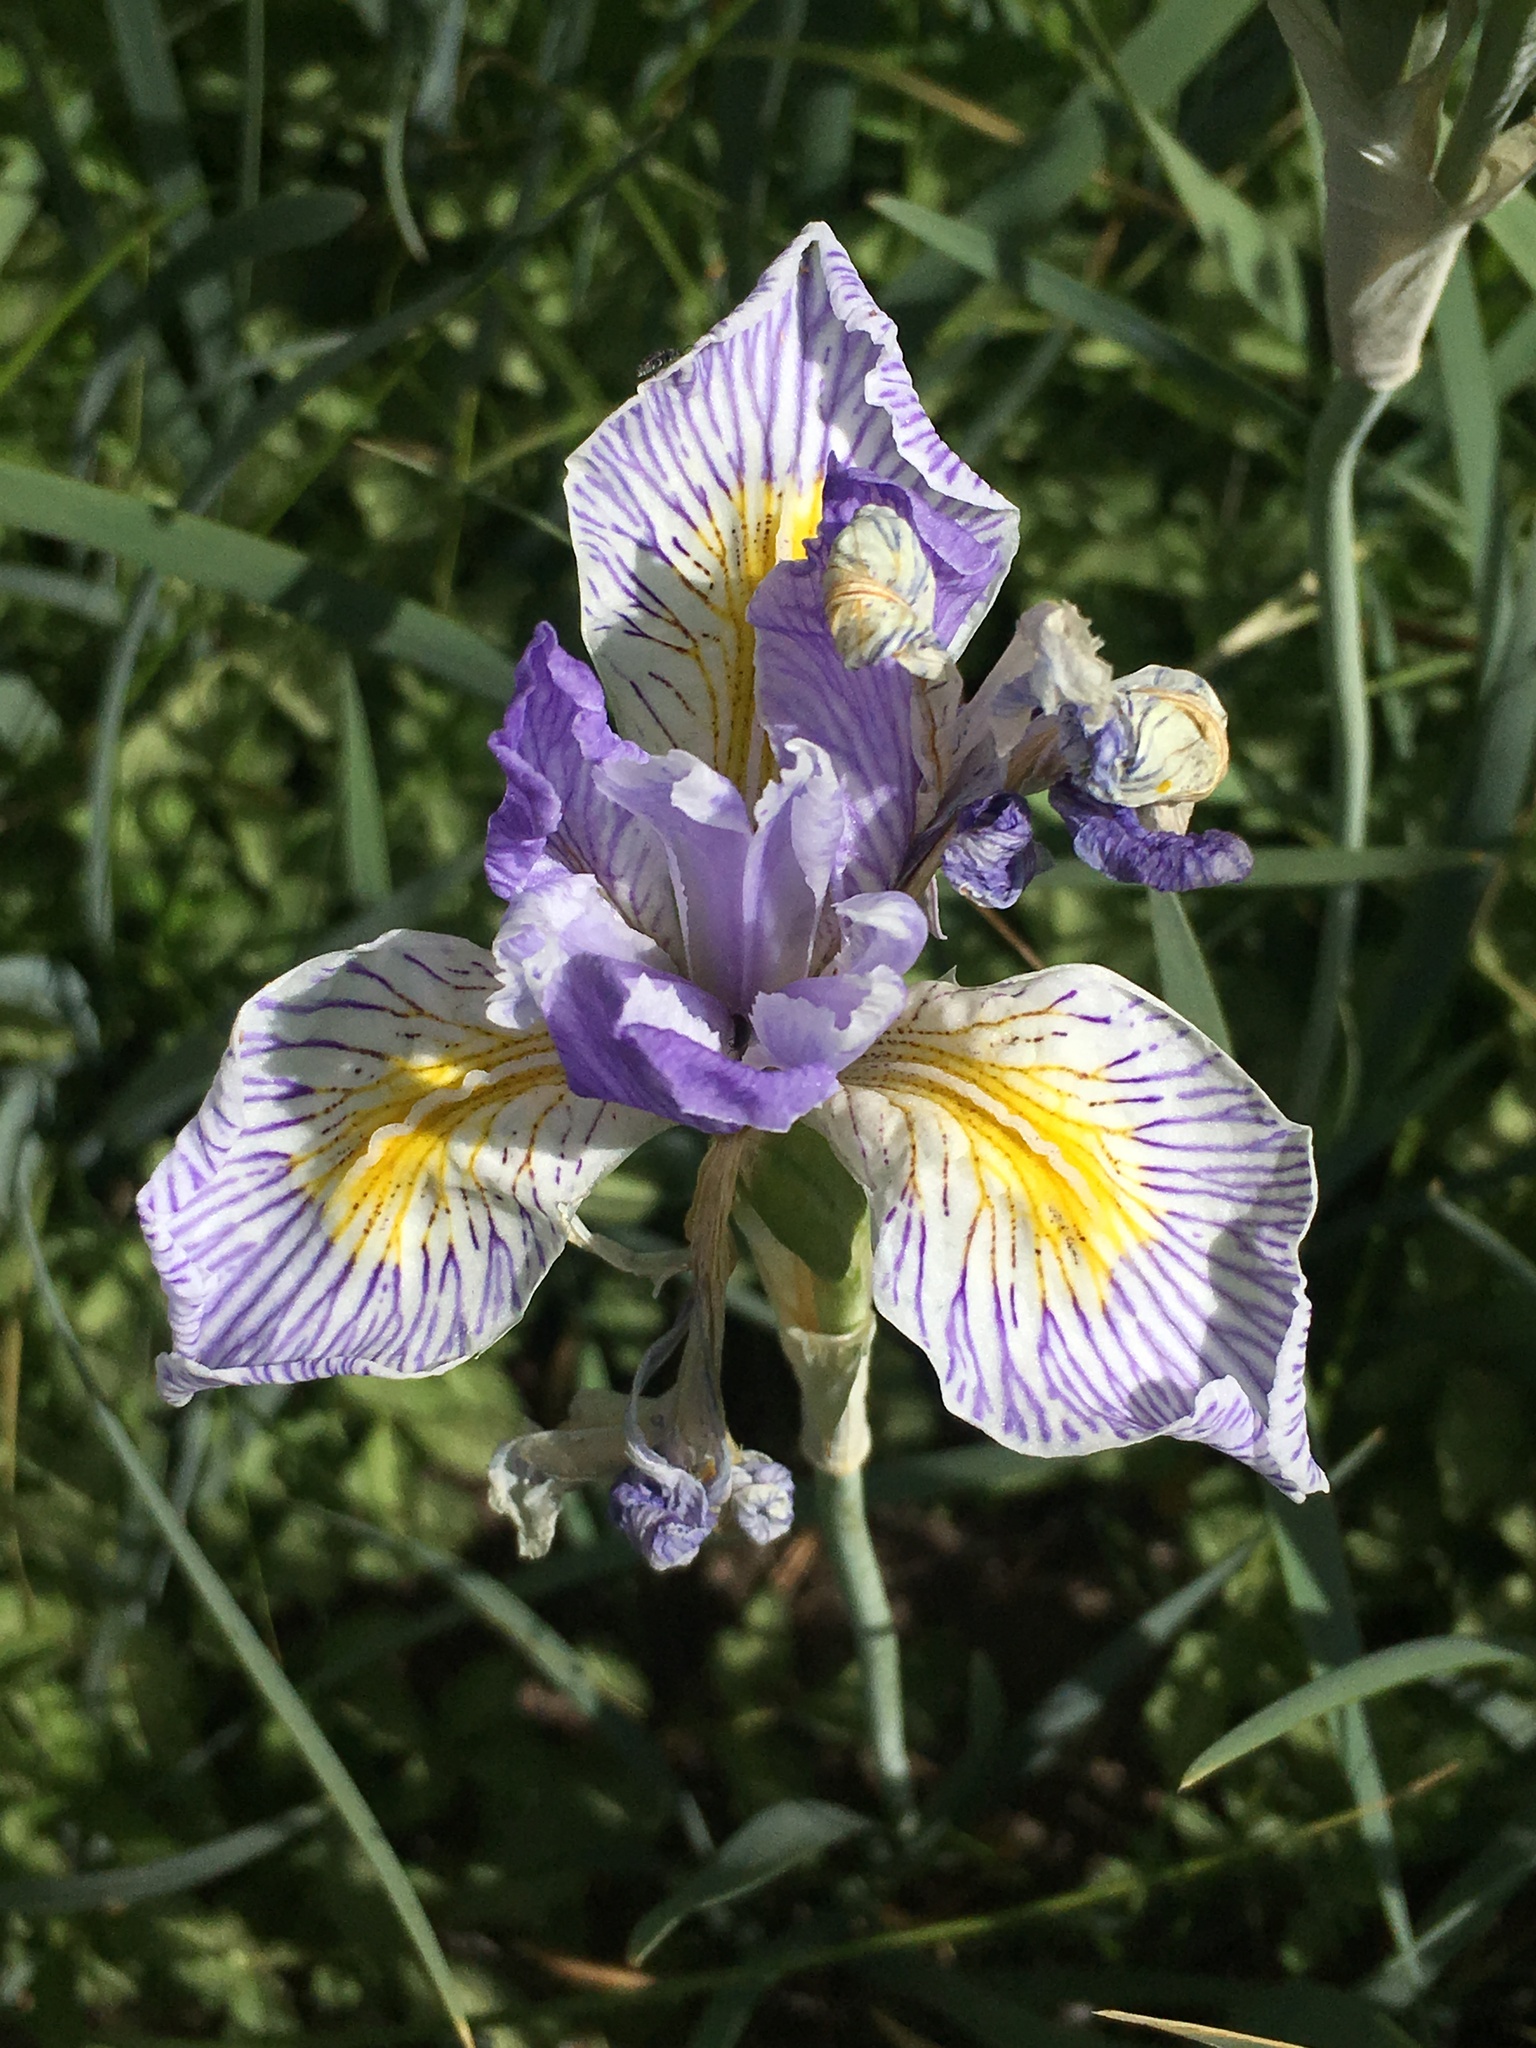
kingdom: Plantae
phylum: Tracheophyta
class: Liliopsida
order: Asparagales
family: Iridaceae
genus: Iris
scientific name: Iris missouriensis
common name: Rocky mountain iris
